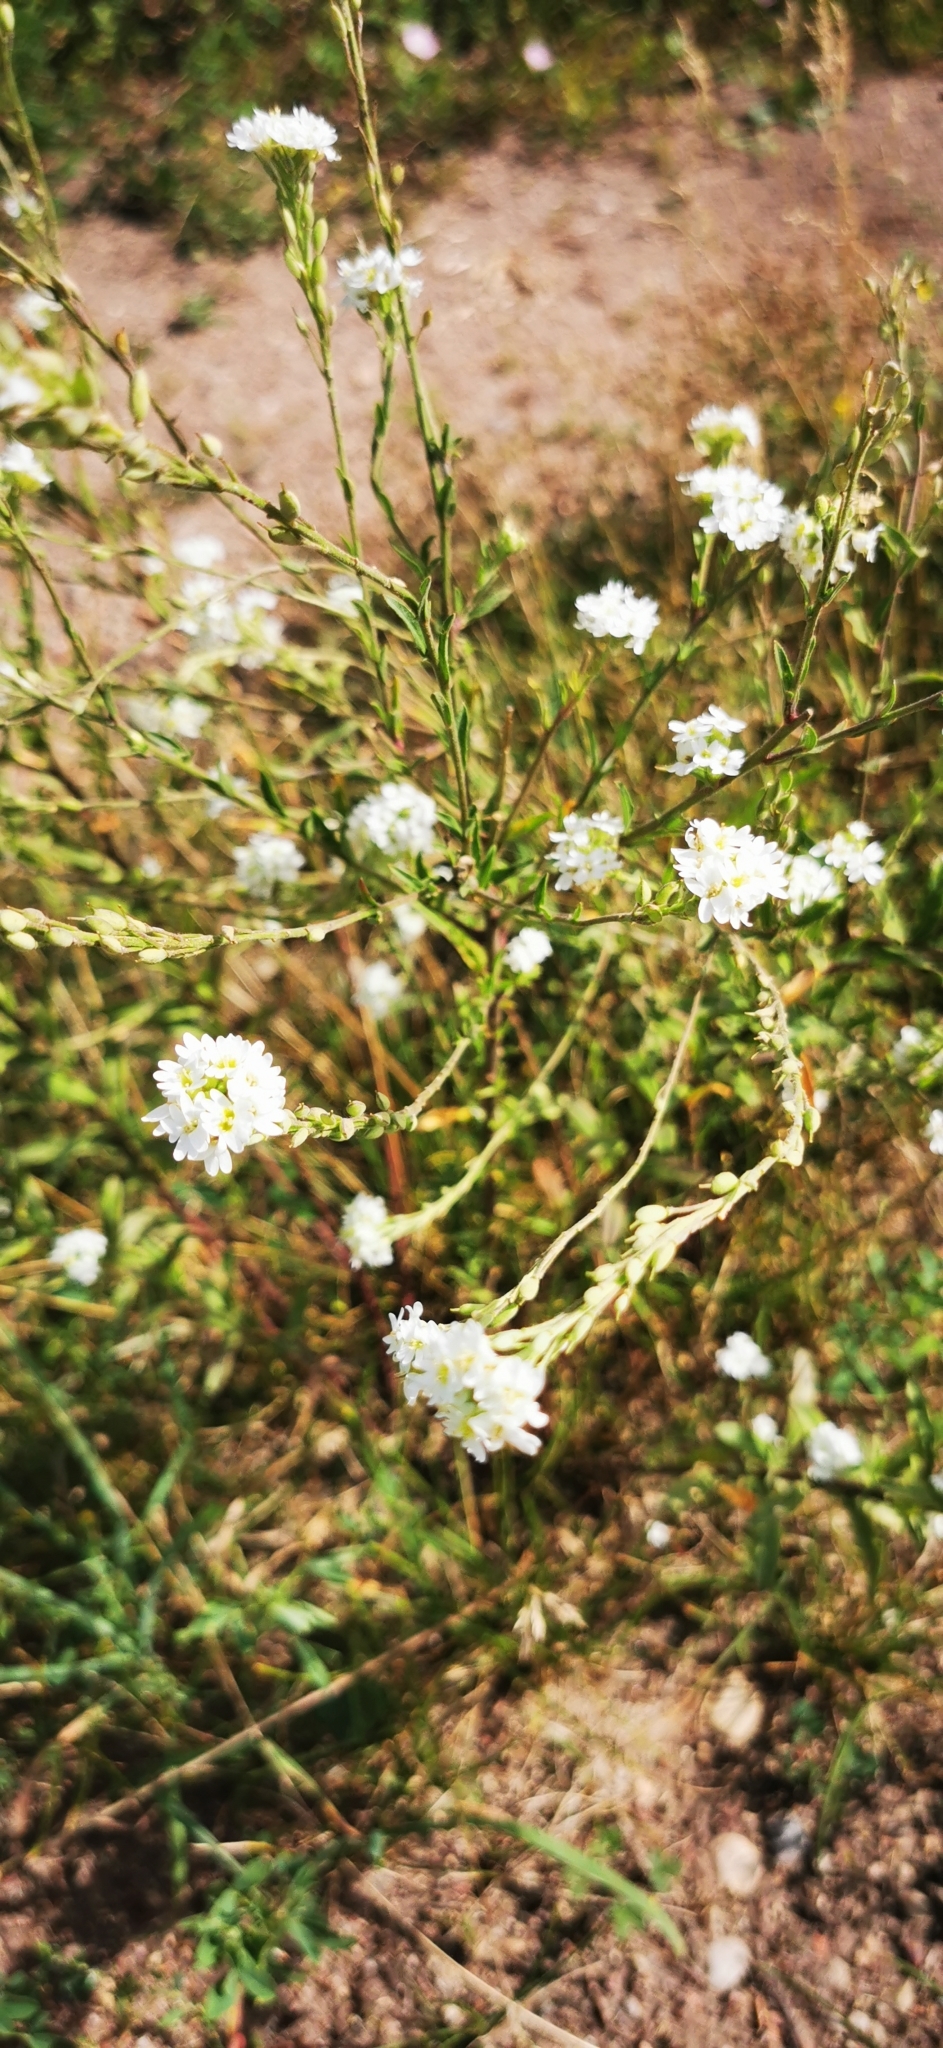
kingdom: Plantae
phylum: Tracheophyta
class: Magnoliopsida
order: Brassicales
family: Brassicaceae
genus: Berteroa
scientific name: Berteroa incana
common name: Hoary alison
